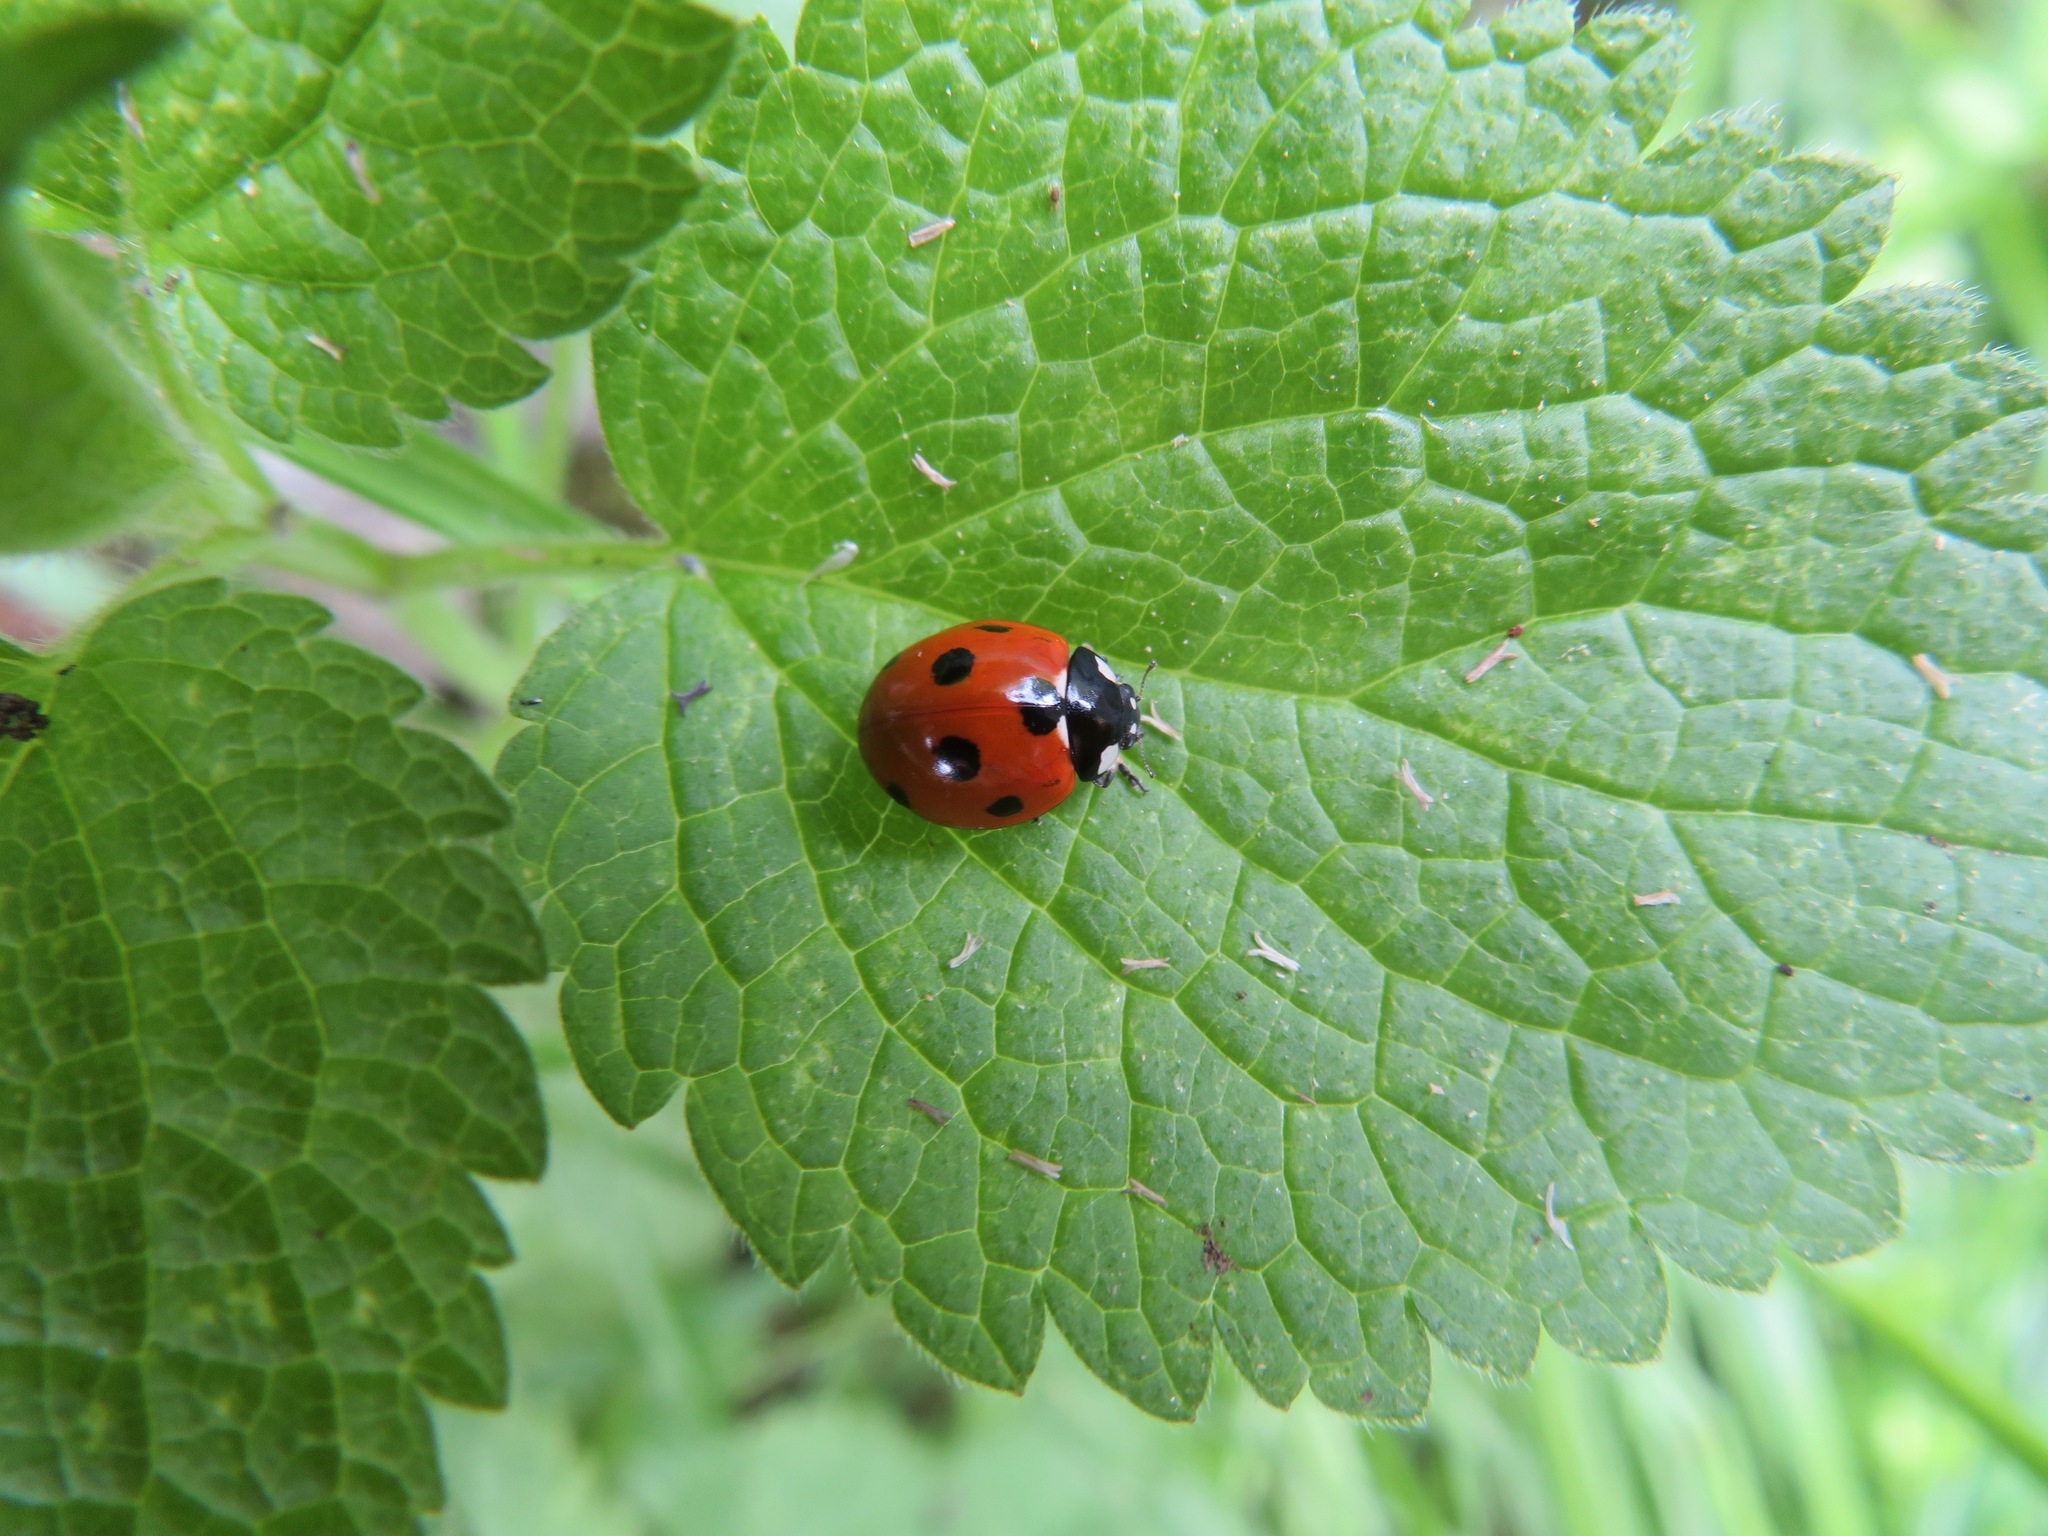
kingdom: Animalia
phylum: Arthropoda
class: Insecta
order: Coleoptera
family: Coccinellidae
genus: Coccinella
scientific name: Coccinella septempunctata
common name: Sevenspotted lady beetle
